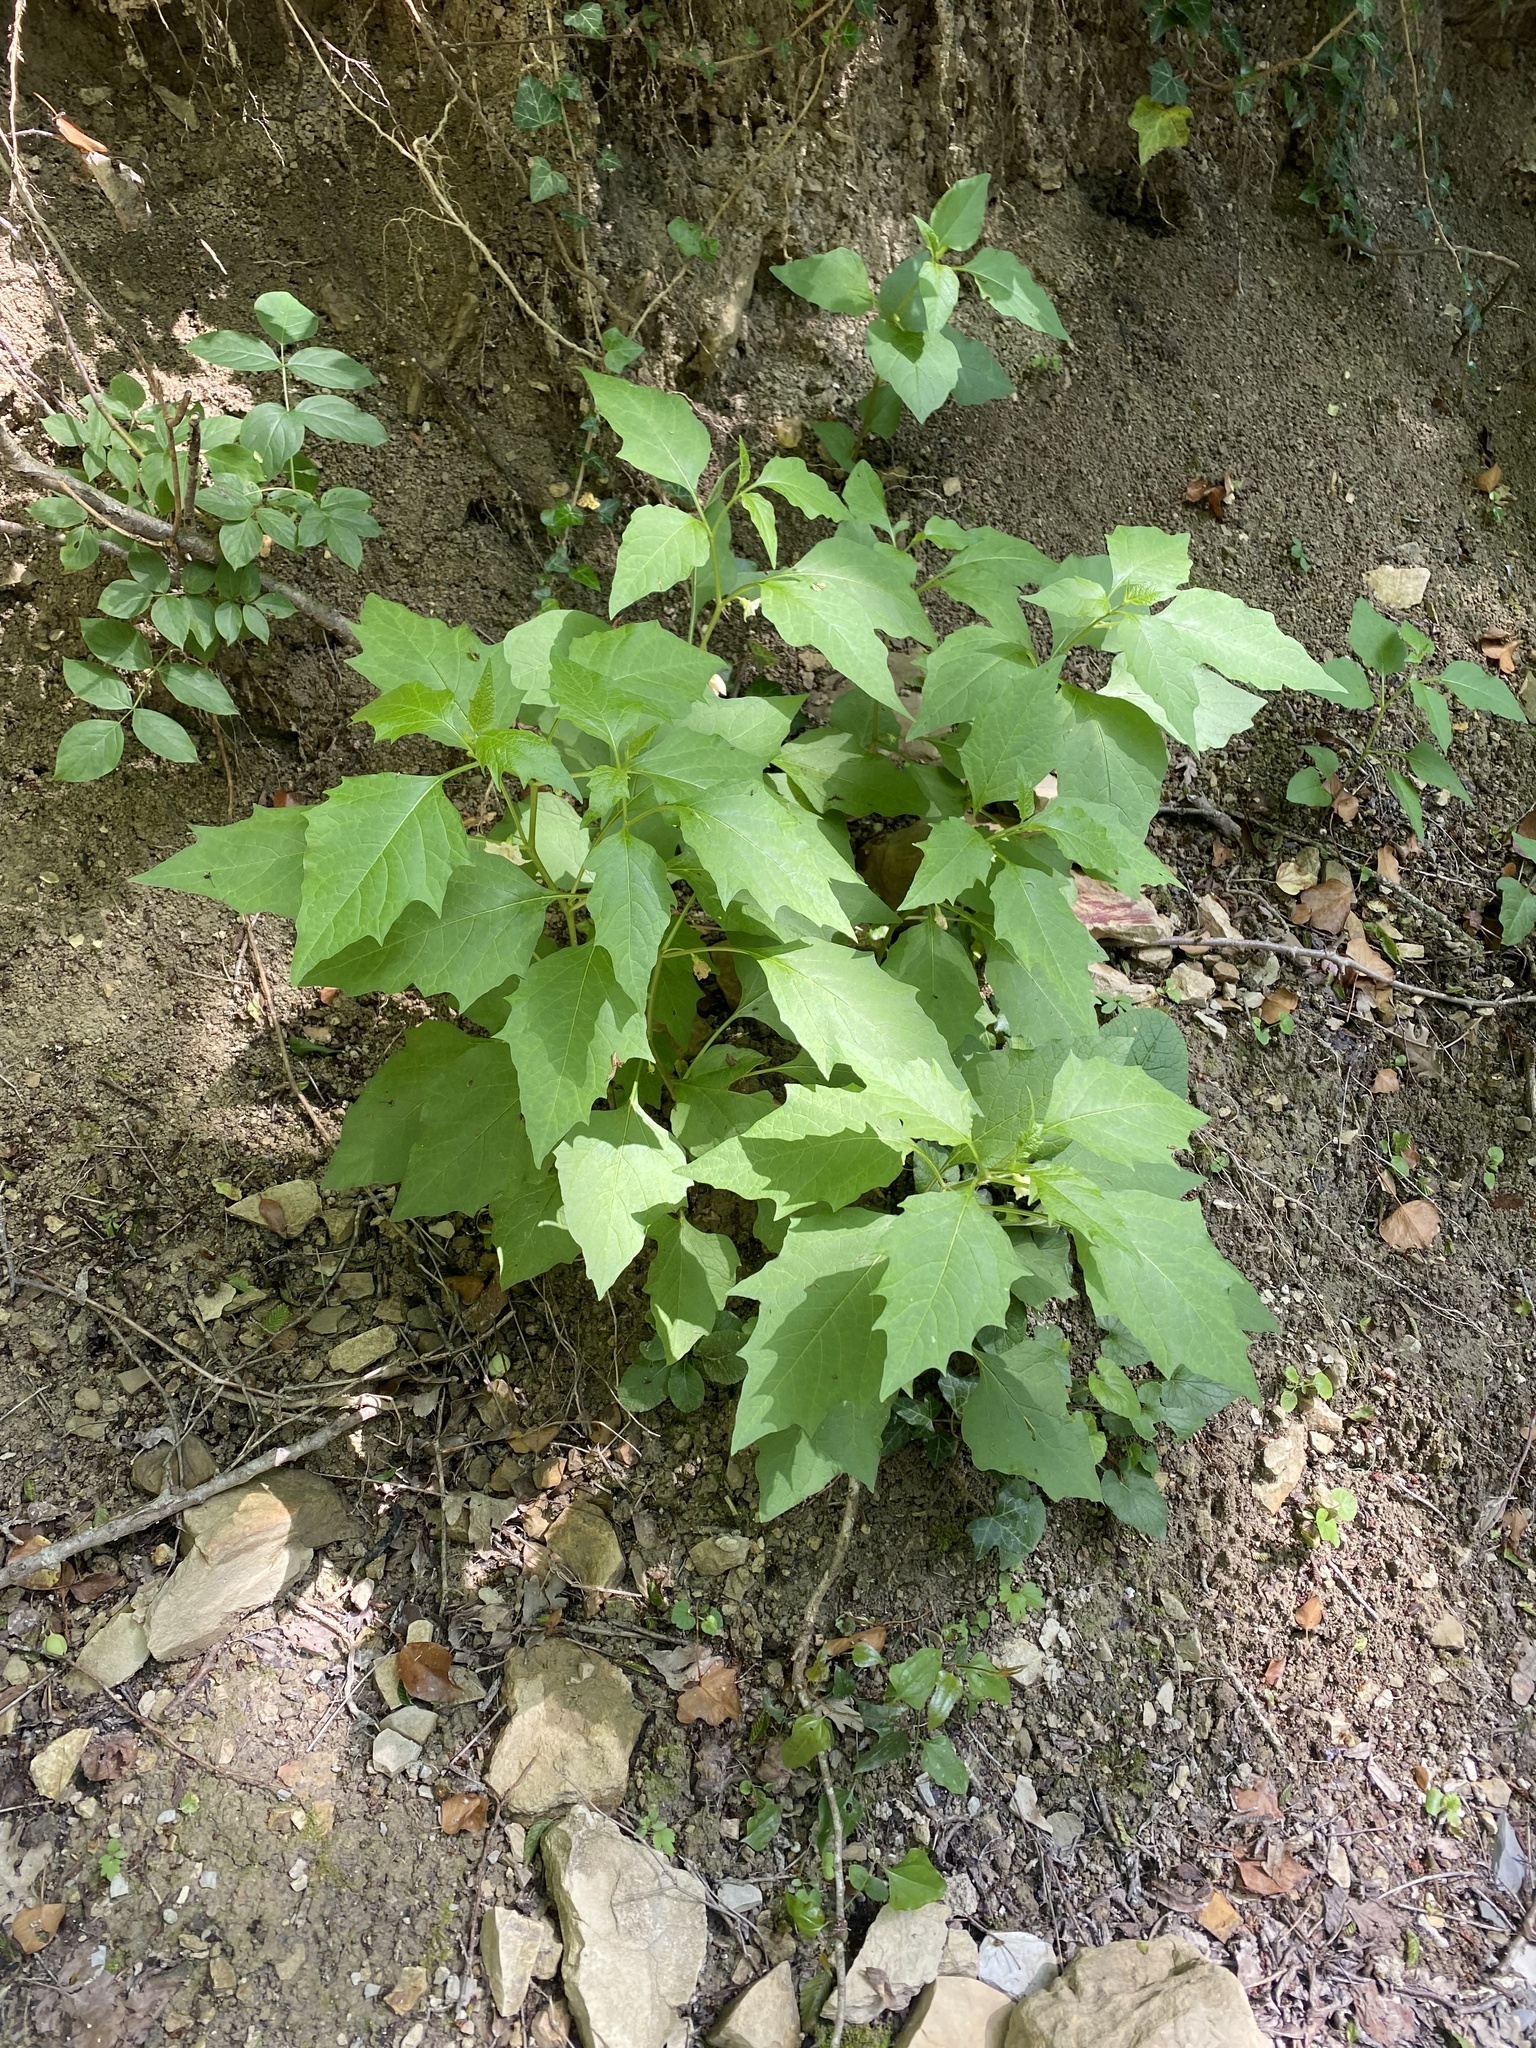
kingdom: Plantae
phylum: Tracheophyta
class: Magnoliopsida
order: Solanales
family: Solanaceae
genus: Alkekengi
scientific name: Alkekengi officinarum
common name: Japanese-lantern
